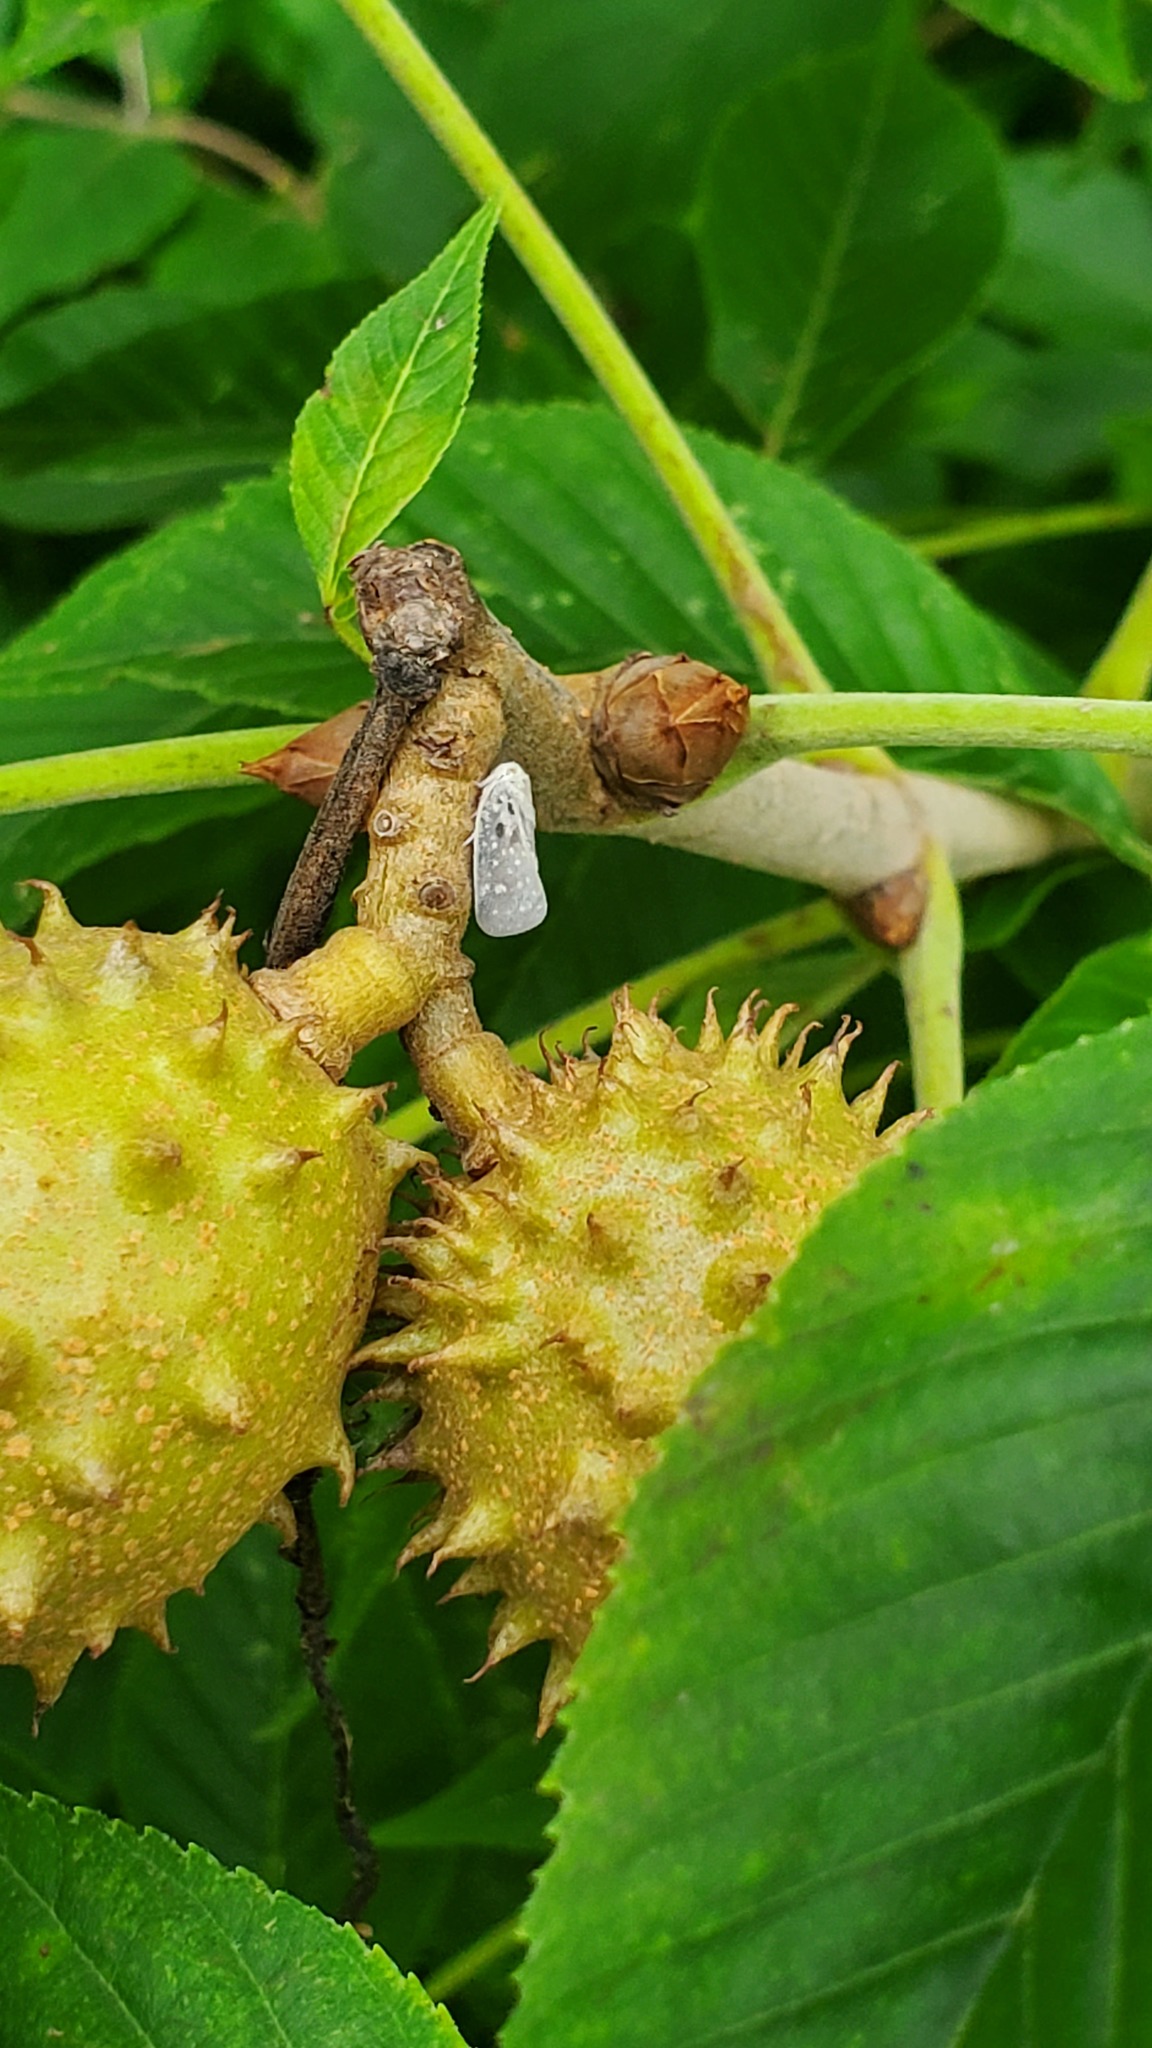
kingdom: Animalia
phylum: Arthropoda
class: Insecta
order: Hemiptera
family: Flatidae
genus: Metcalfa
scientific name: Metcalfa pruinosa
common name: Citrus flatid planthopper
